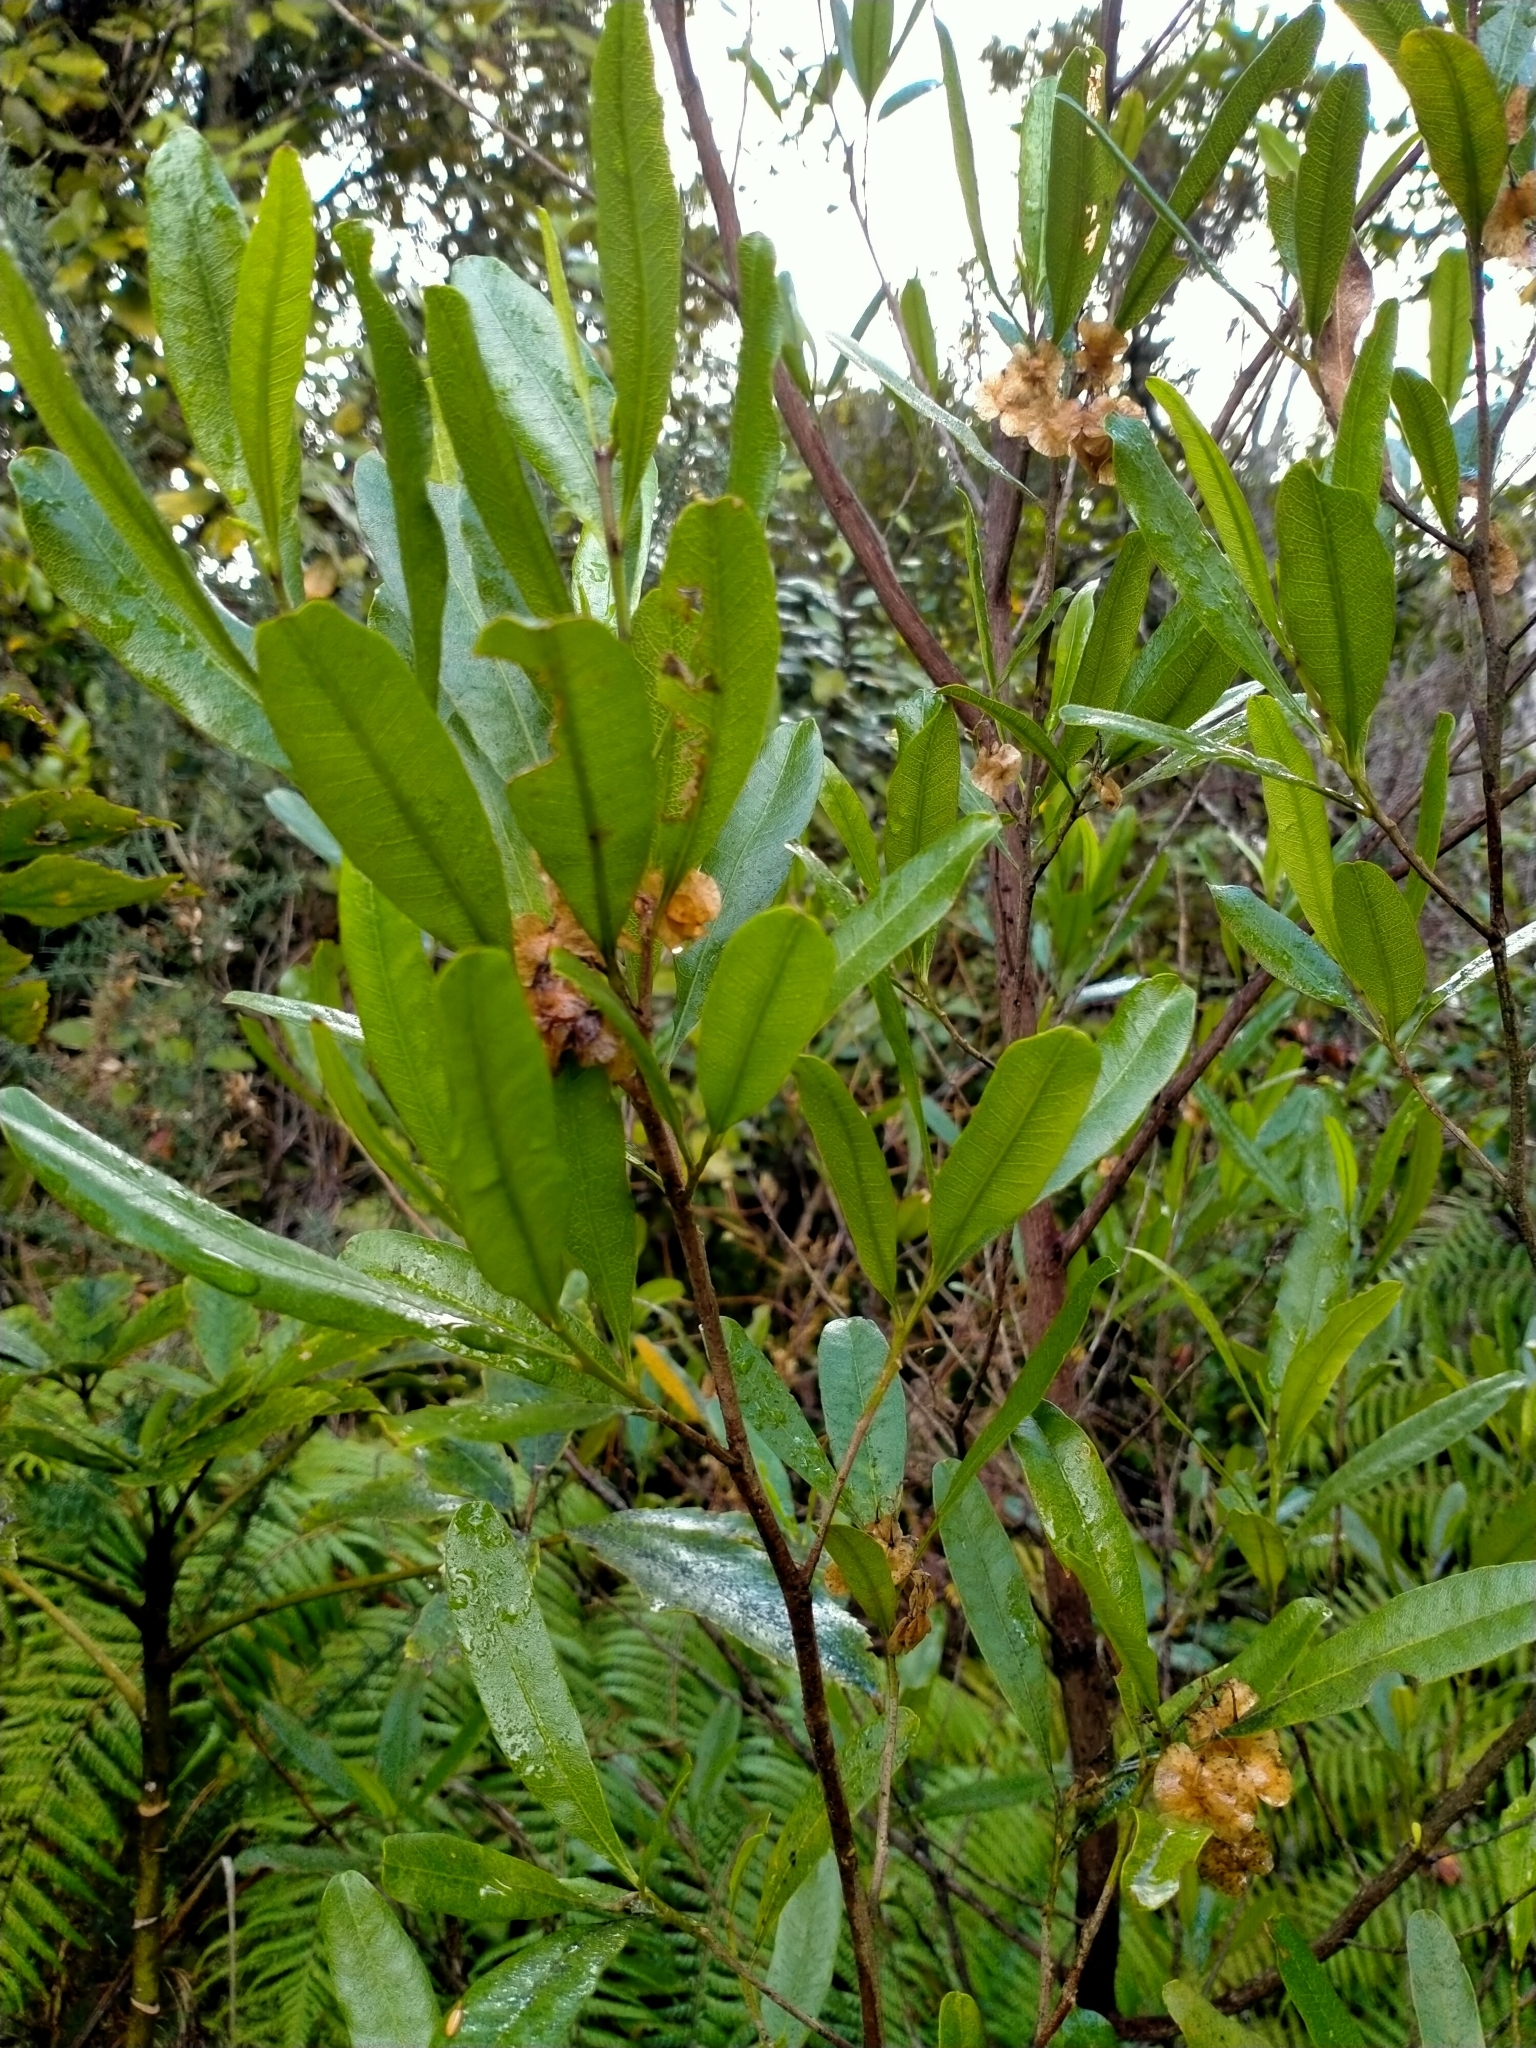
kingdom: Plantae
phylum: Tracheophyta
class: Magnoliopsida
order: Sapindales
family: Sapindaceae
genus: Dodonaea
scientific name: Dodonaea viscosa
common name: Hopbush
